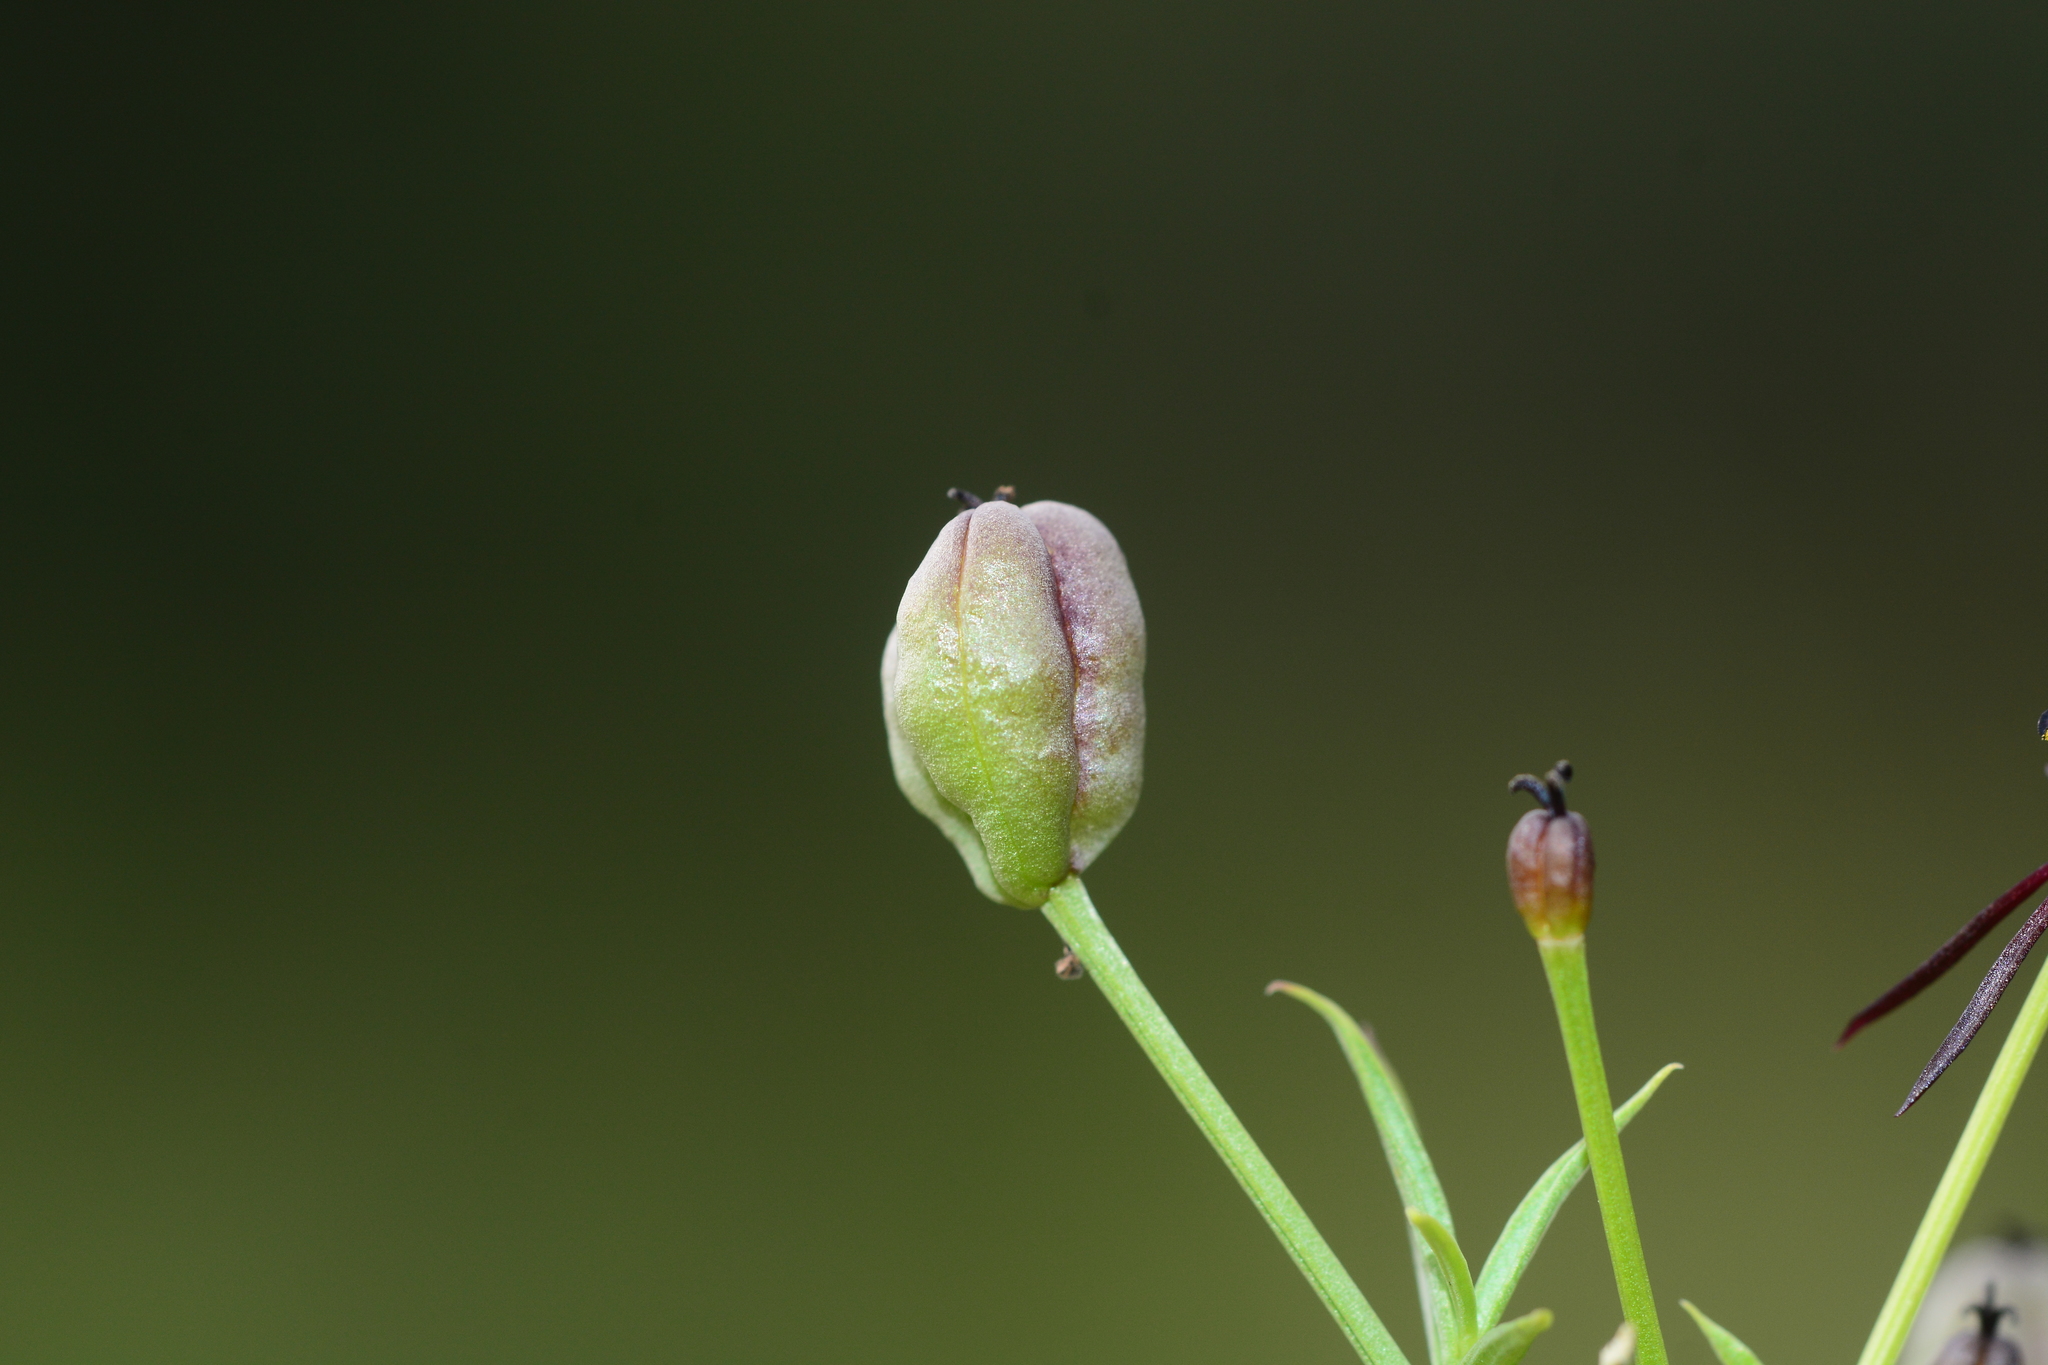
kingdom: Plantae
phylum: Tracheophyta
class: Liliopsida
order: Liliales
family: Colchicaceae
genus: Iphigenia
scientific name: Iphigenia magnifica
